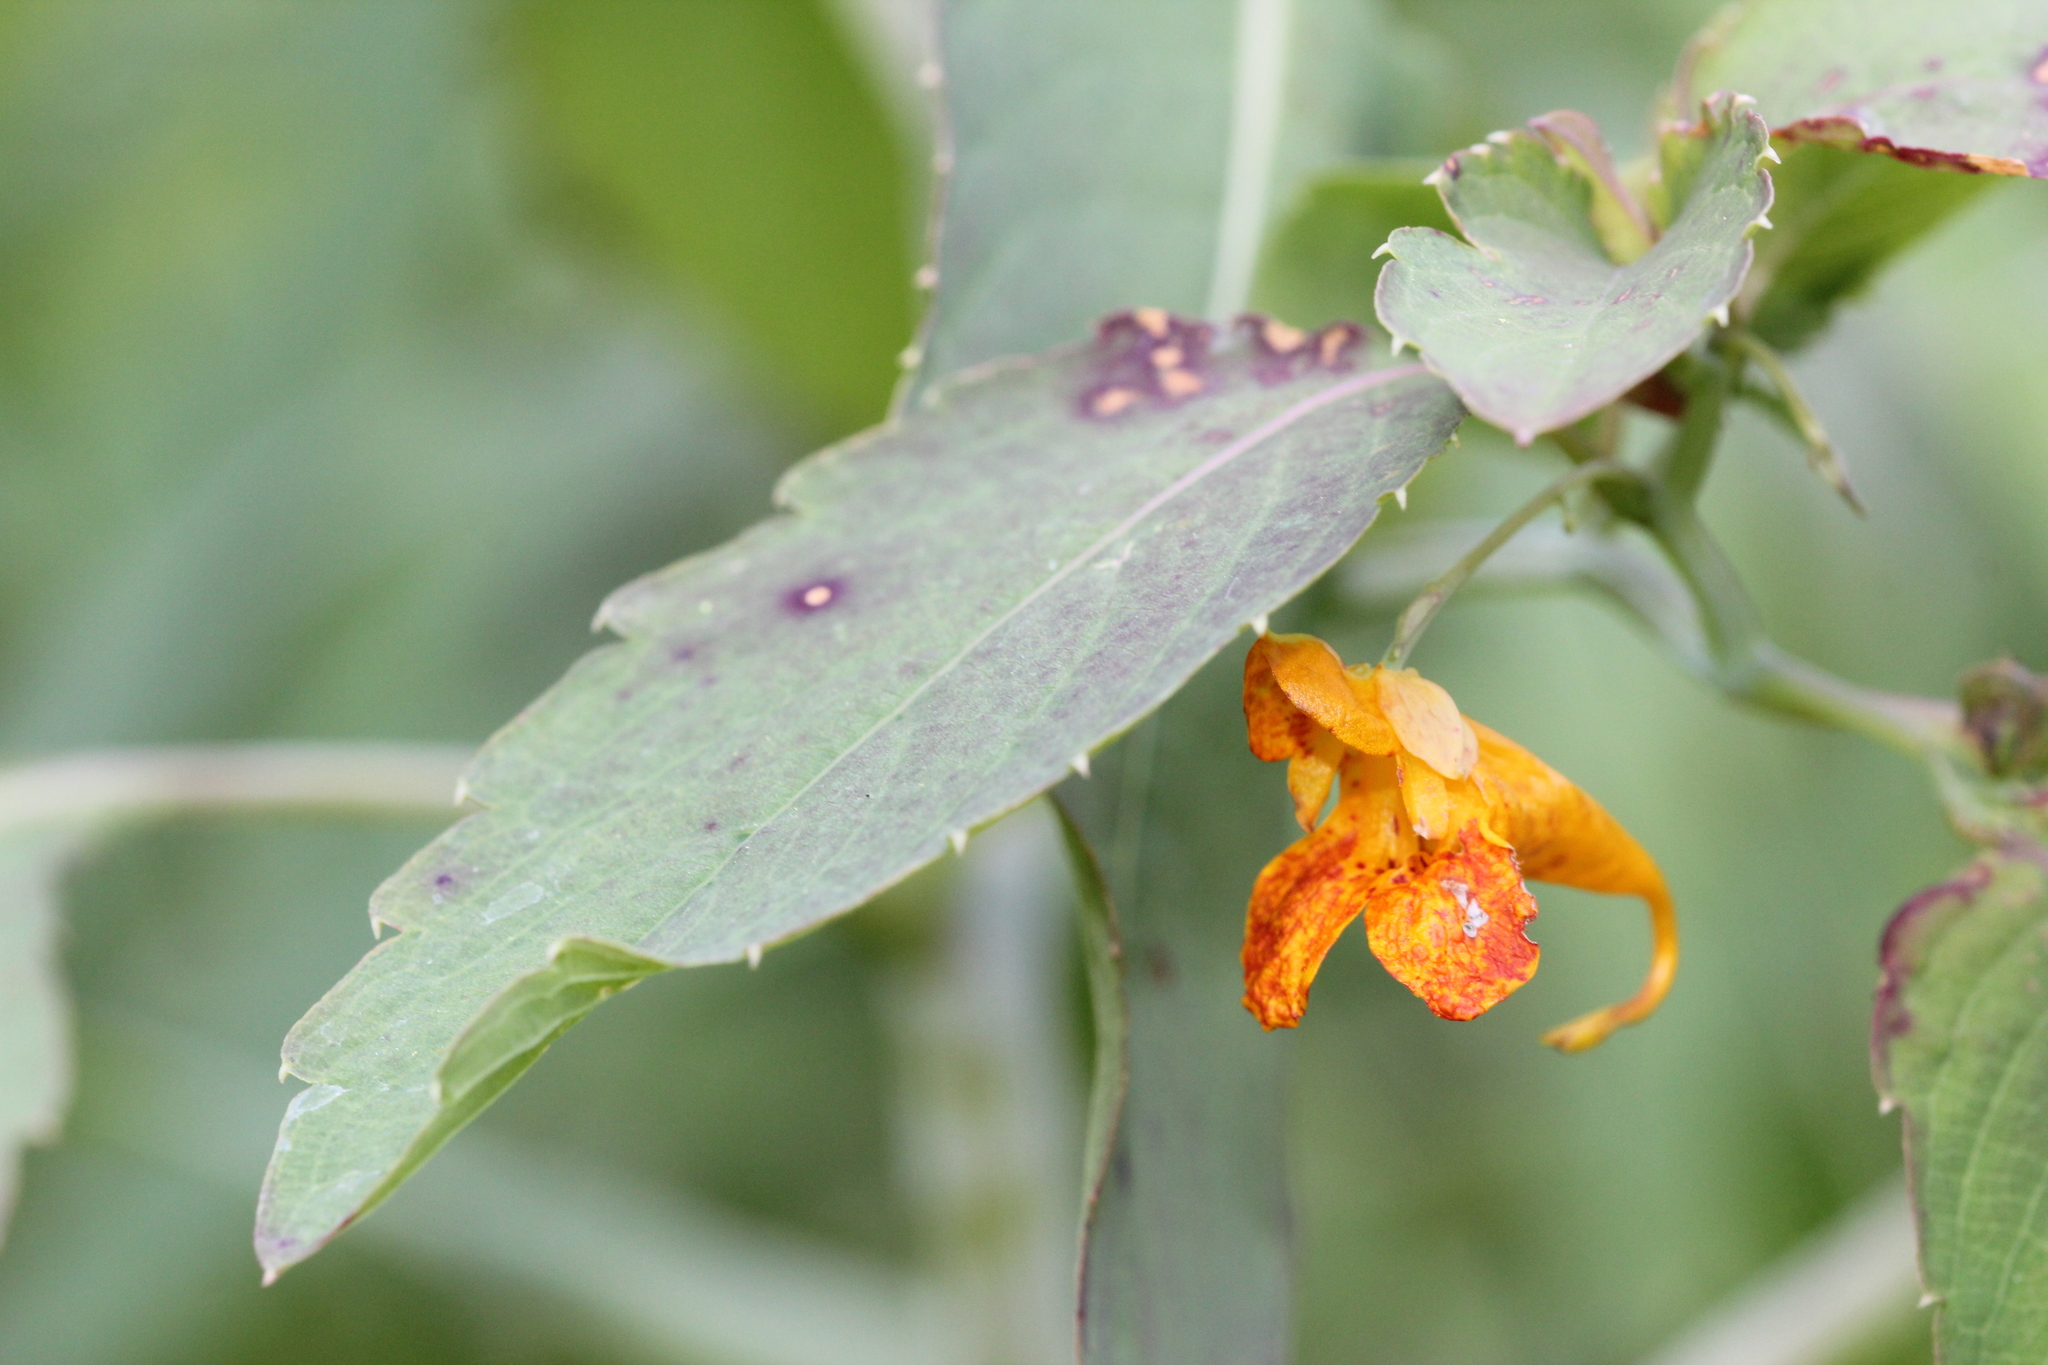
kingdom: Plantae
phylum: Tracheophyta
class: Magnoliopsida
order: Ericales
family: Balsaminaceae
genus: Impatiens
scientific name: Impatiens capensis
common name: Orange balsam
